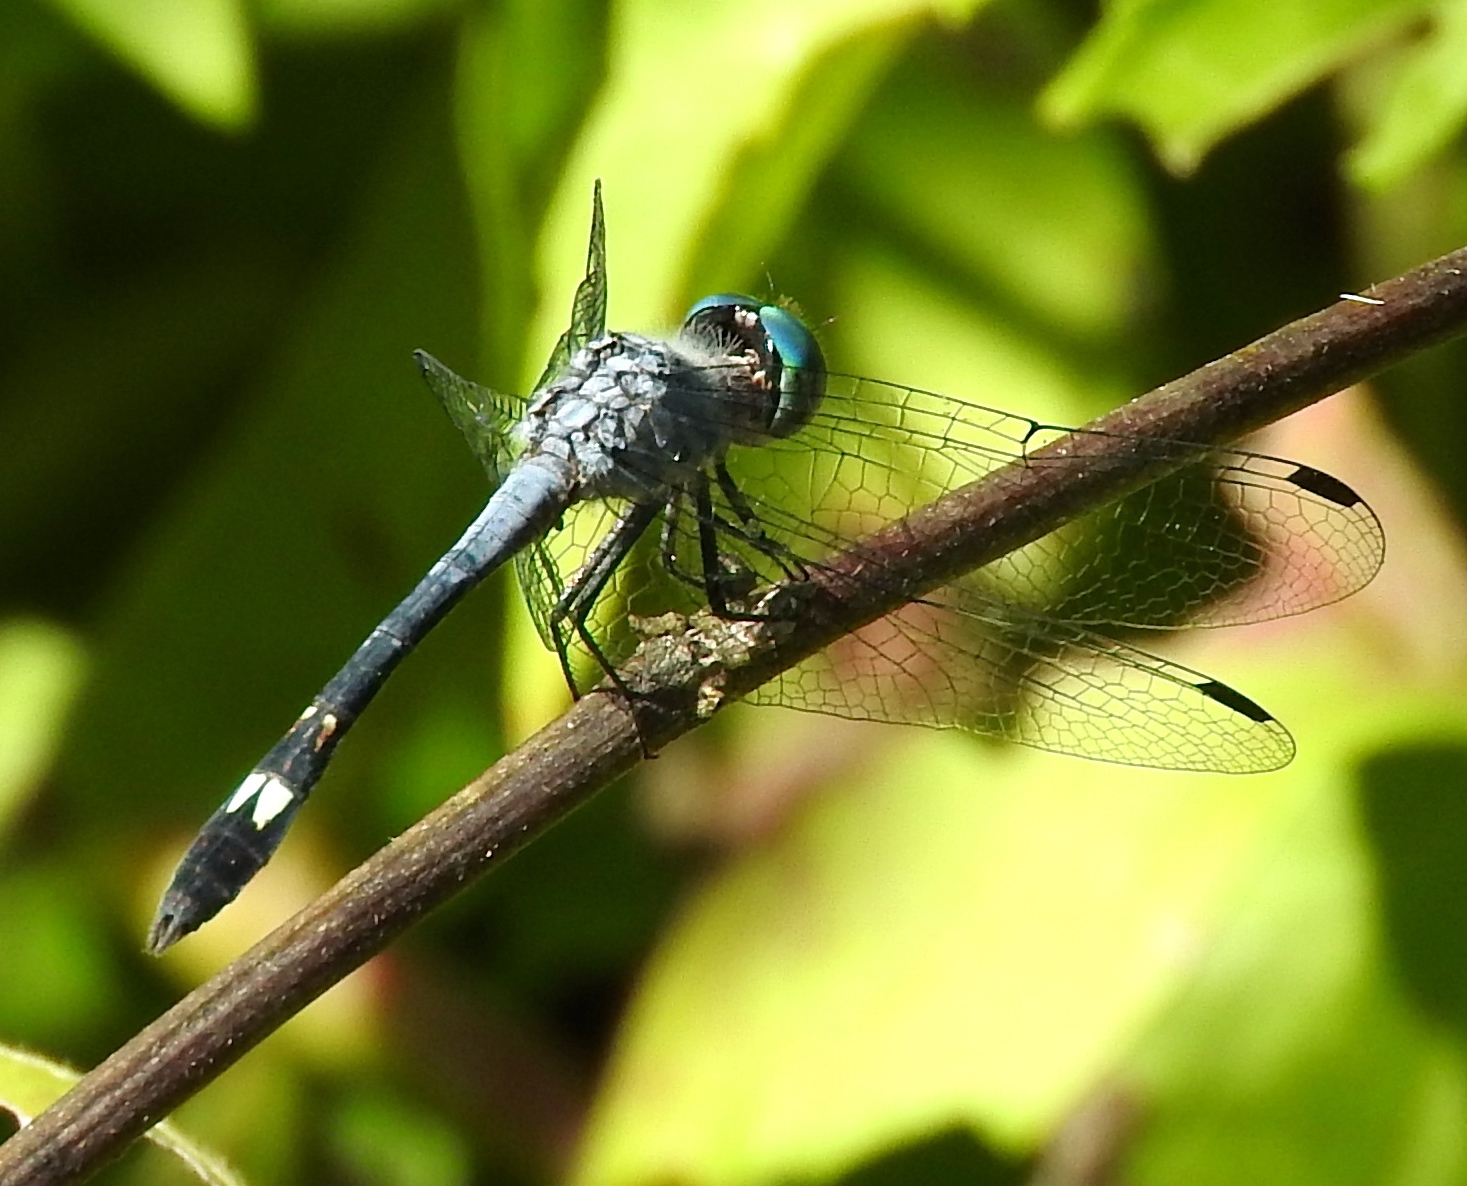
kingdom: Animalia
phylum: Arthropoda
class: Insecta
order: Odonata
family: Libellulidae
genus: Micrathyria
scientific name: Micrathyria aequalis
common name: Spot-tailed dasher
